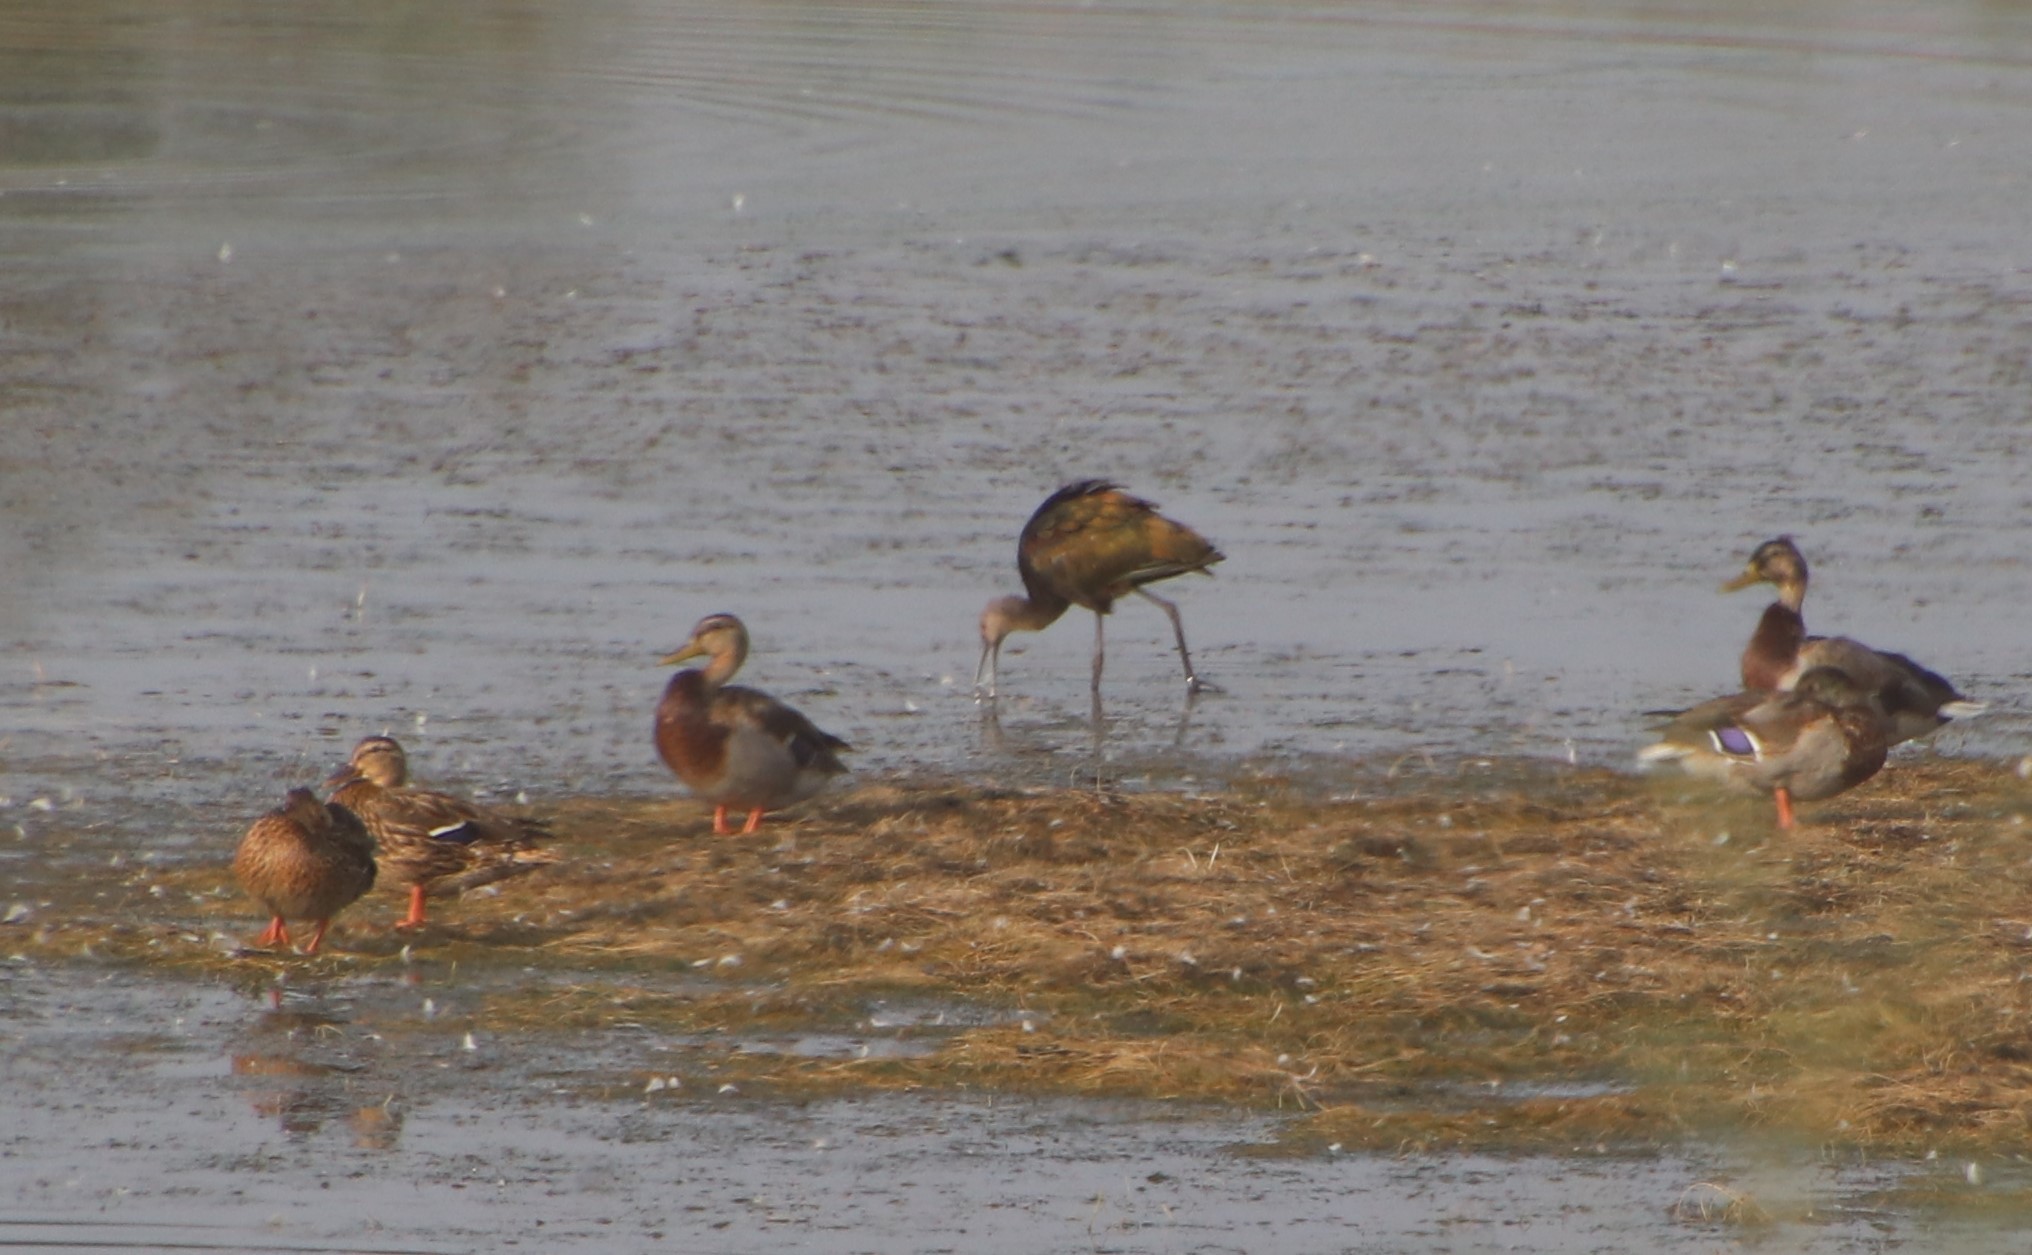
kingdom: Animalia
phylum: Chordata
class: Aves
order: Pelecaniformes
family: Threskiornithidae
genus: Plegadis
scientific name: Plegadis chihi
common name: White-faced ibis
